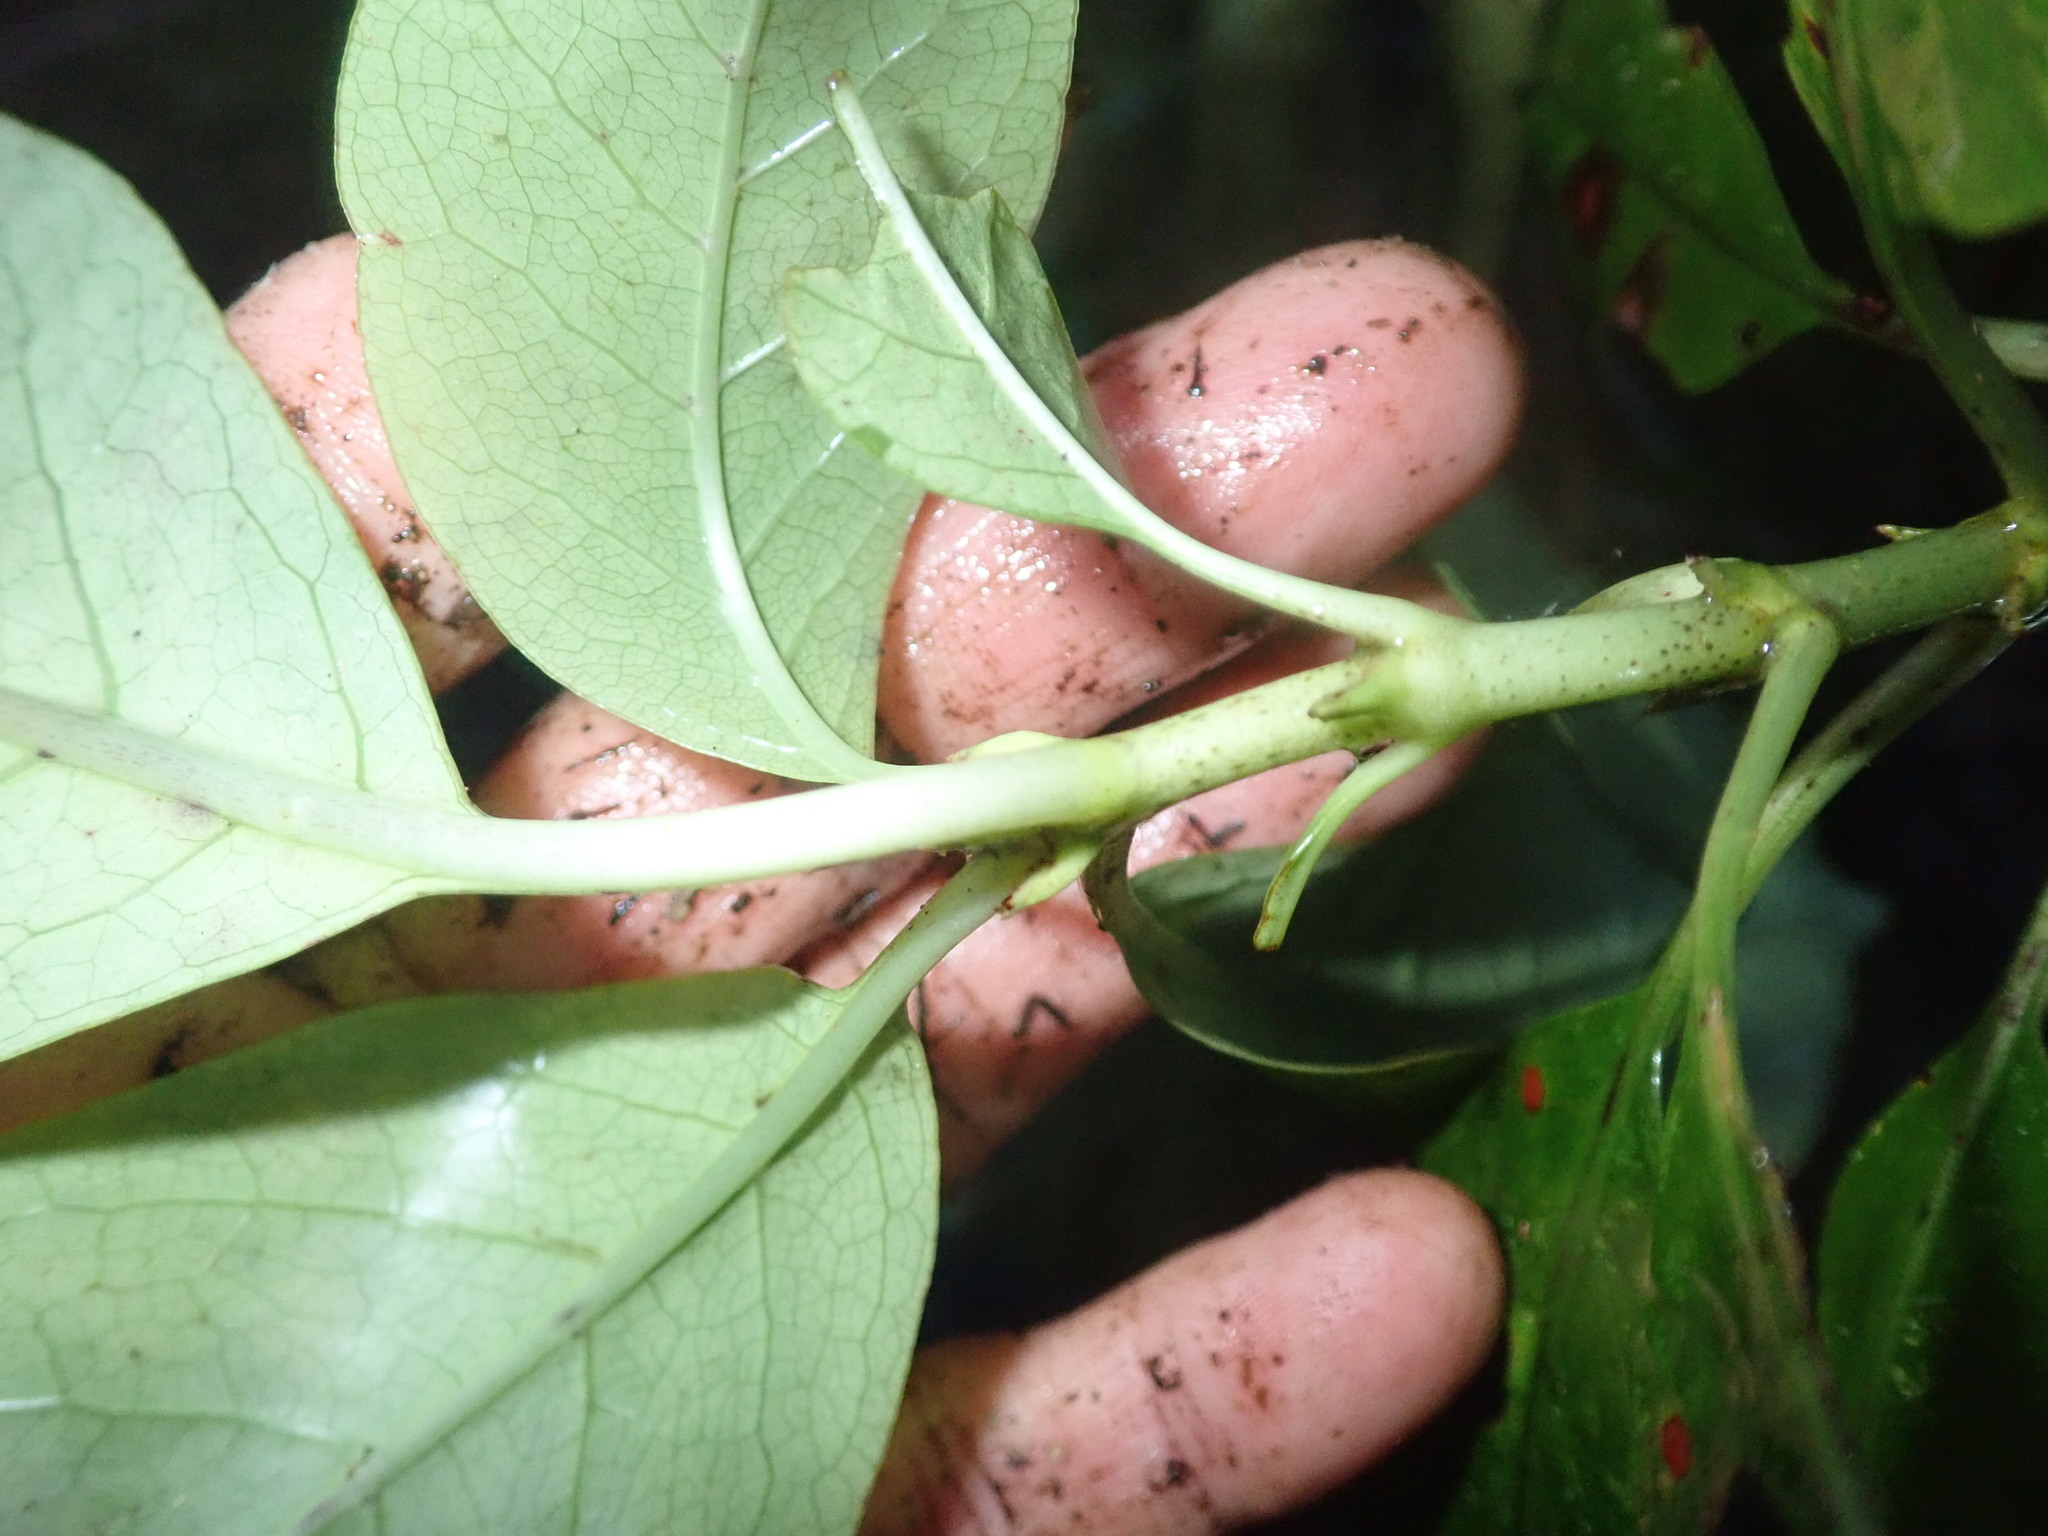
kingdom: Plantae
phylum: Tracheophyta
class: Magnoliopsida
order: Gentianales
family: Rubiaceae
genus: Coprosma
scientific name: Coprosma autumnalis
